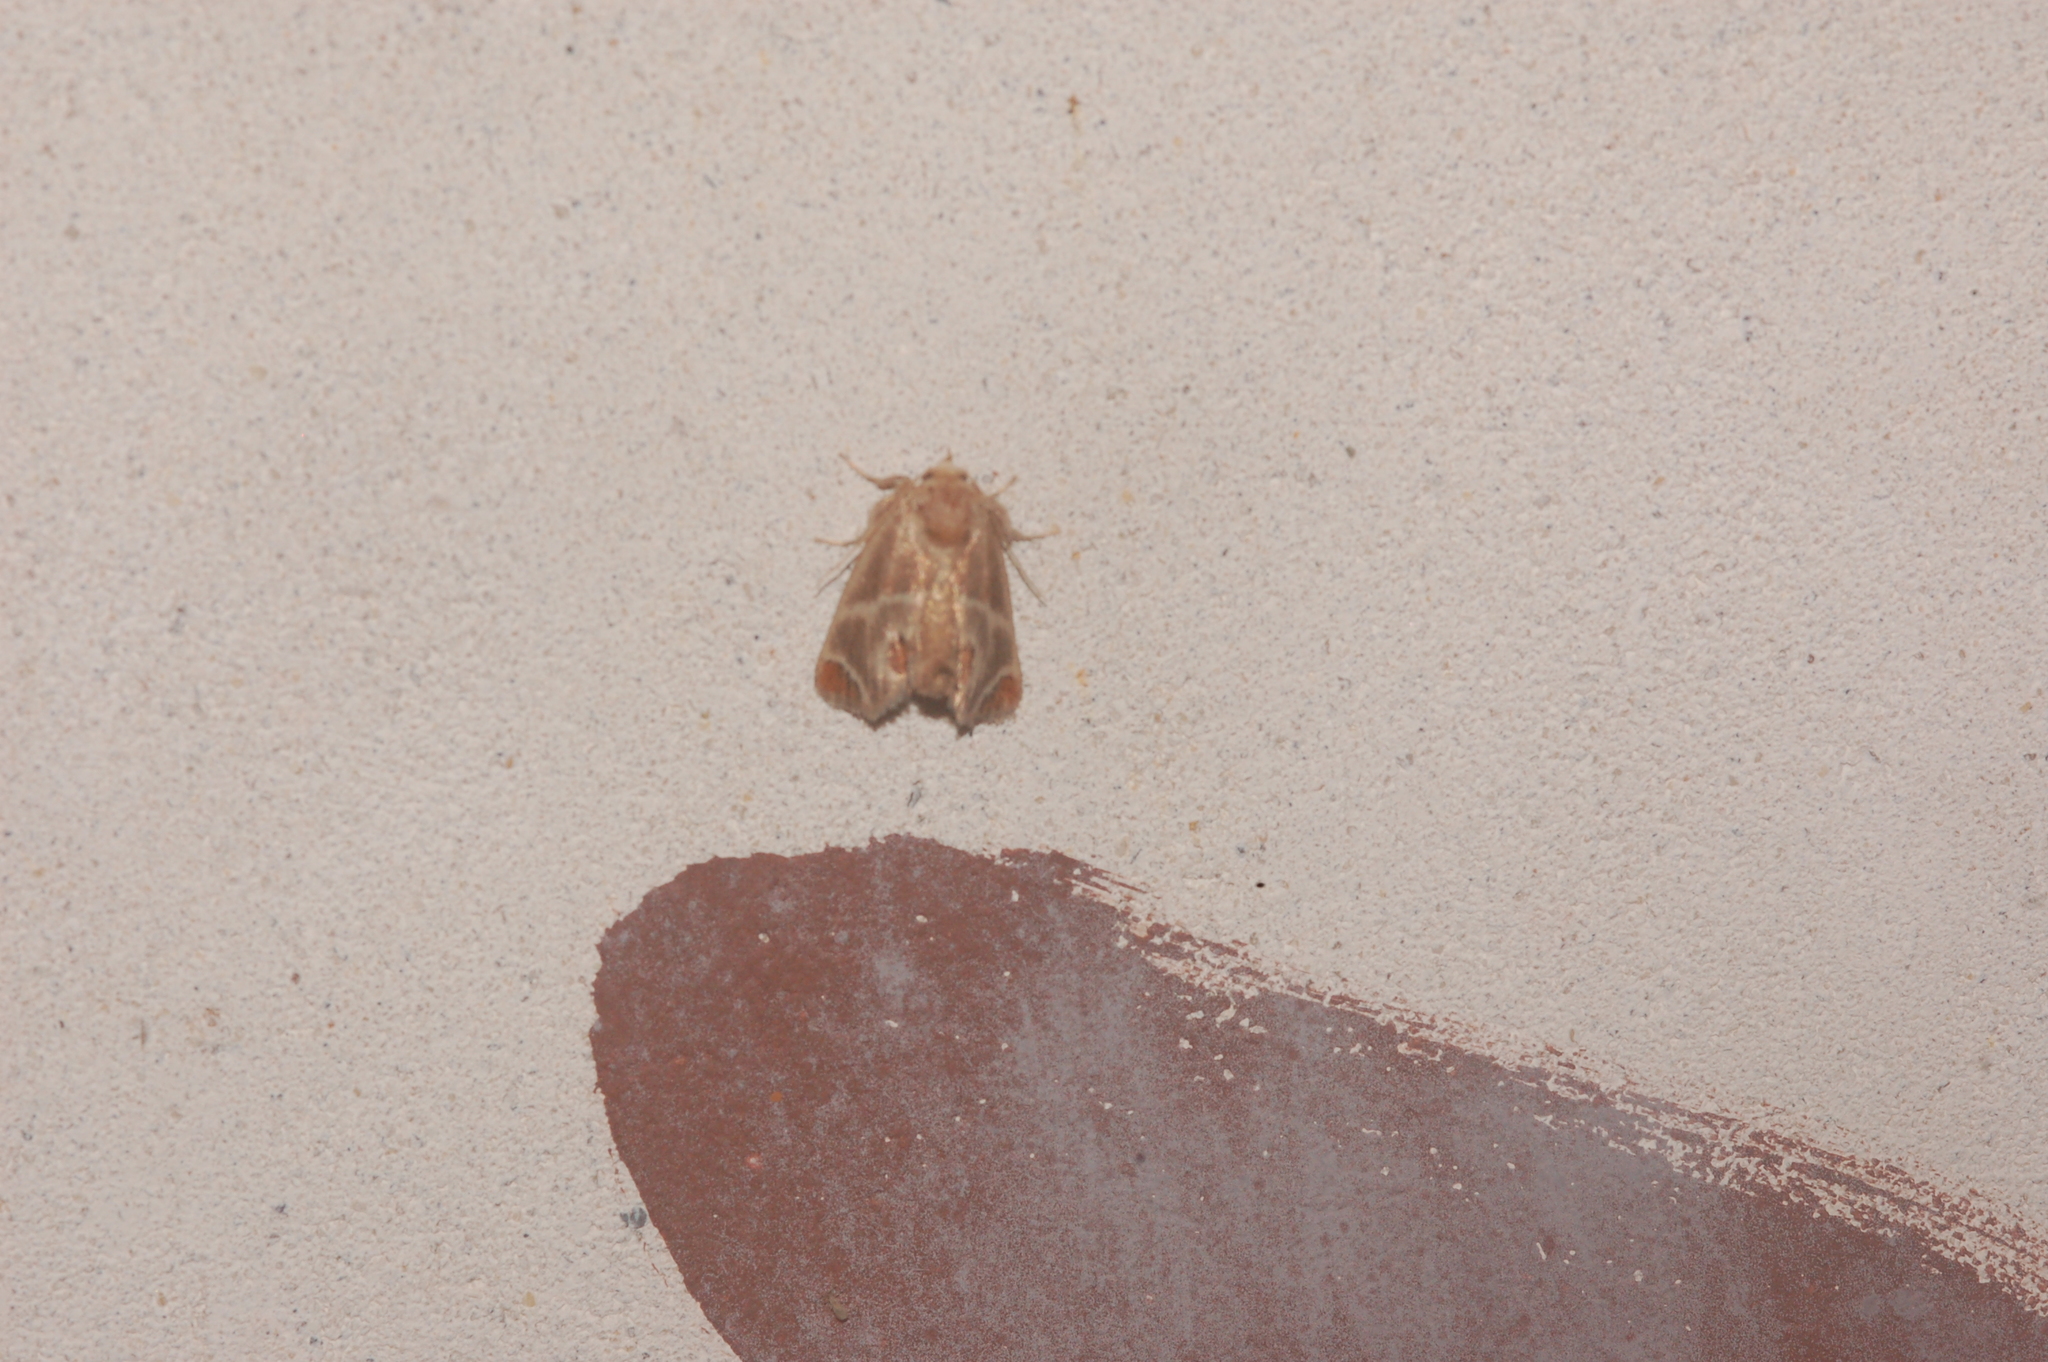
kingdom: Animalia
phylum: Arthropoda
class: Insecta
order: Lepidoptera
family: Limacodidae
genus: Apoda
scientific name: Apoda biguttata
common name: Shagreened slug moth
